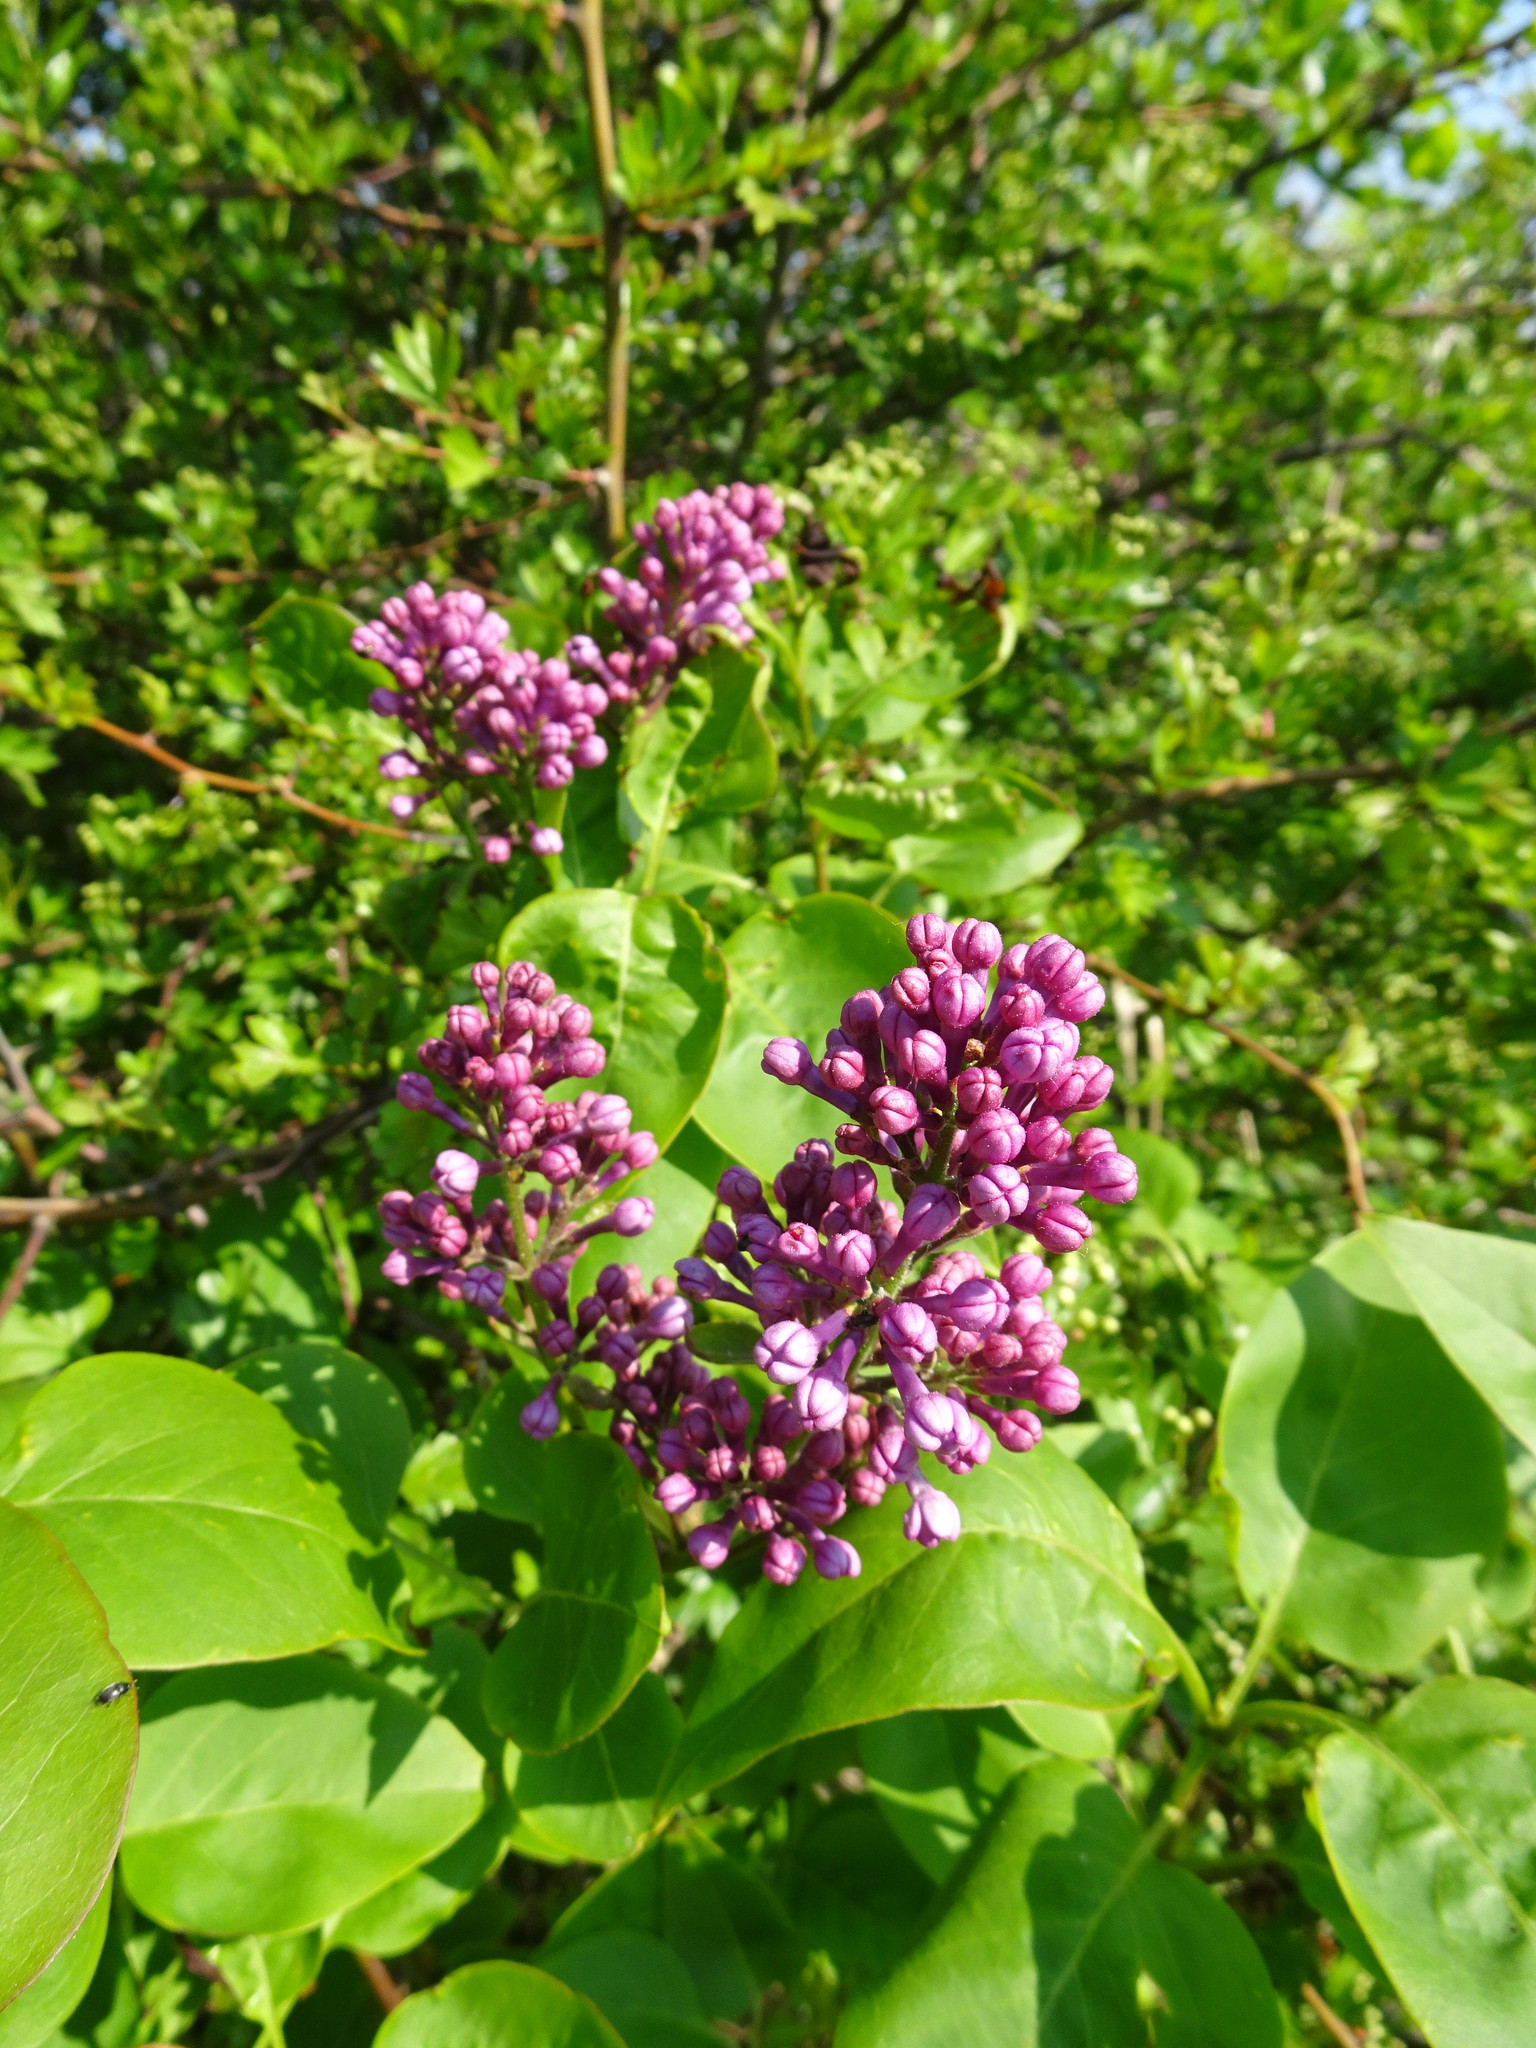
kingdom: Plantae
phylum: Tracheophyta
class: Magnoliopsida
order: Lamiales
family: Oleaceae
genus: Syringa
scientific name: Syringa vulgaris
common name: Common lilac
